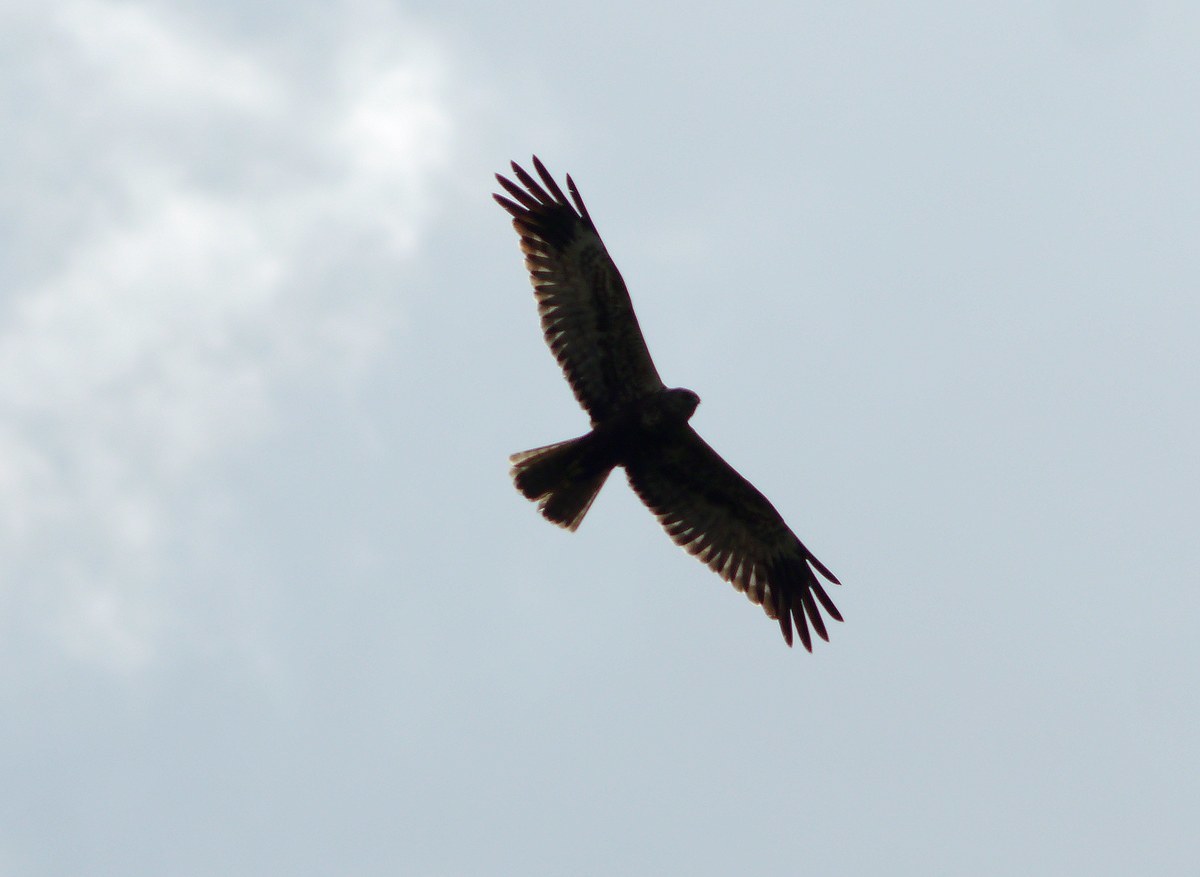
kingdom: Animalia
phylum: Chordata
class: Aves
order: Accipitriformes
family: Accipitridae
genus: Circus
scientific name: Circus aeruginosus
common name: Western marsh harrier
